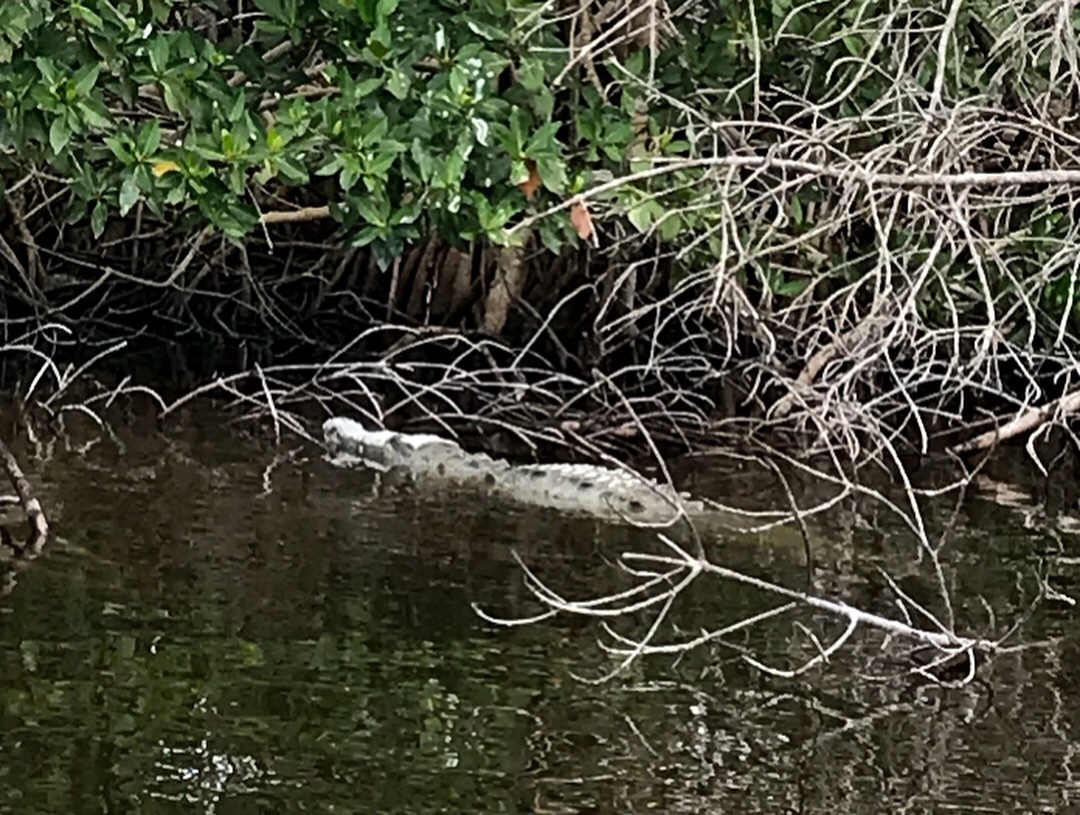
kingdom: Animalia
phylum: Chordata
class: Crocodylia
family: Crocodylidae
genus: Crocodylus
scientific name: Crocodylus acutus
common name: American crocodile
